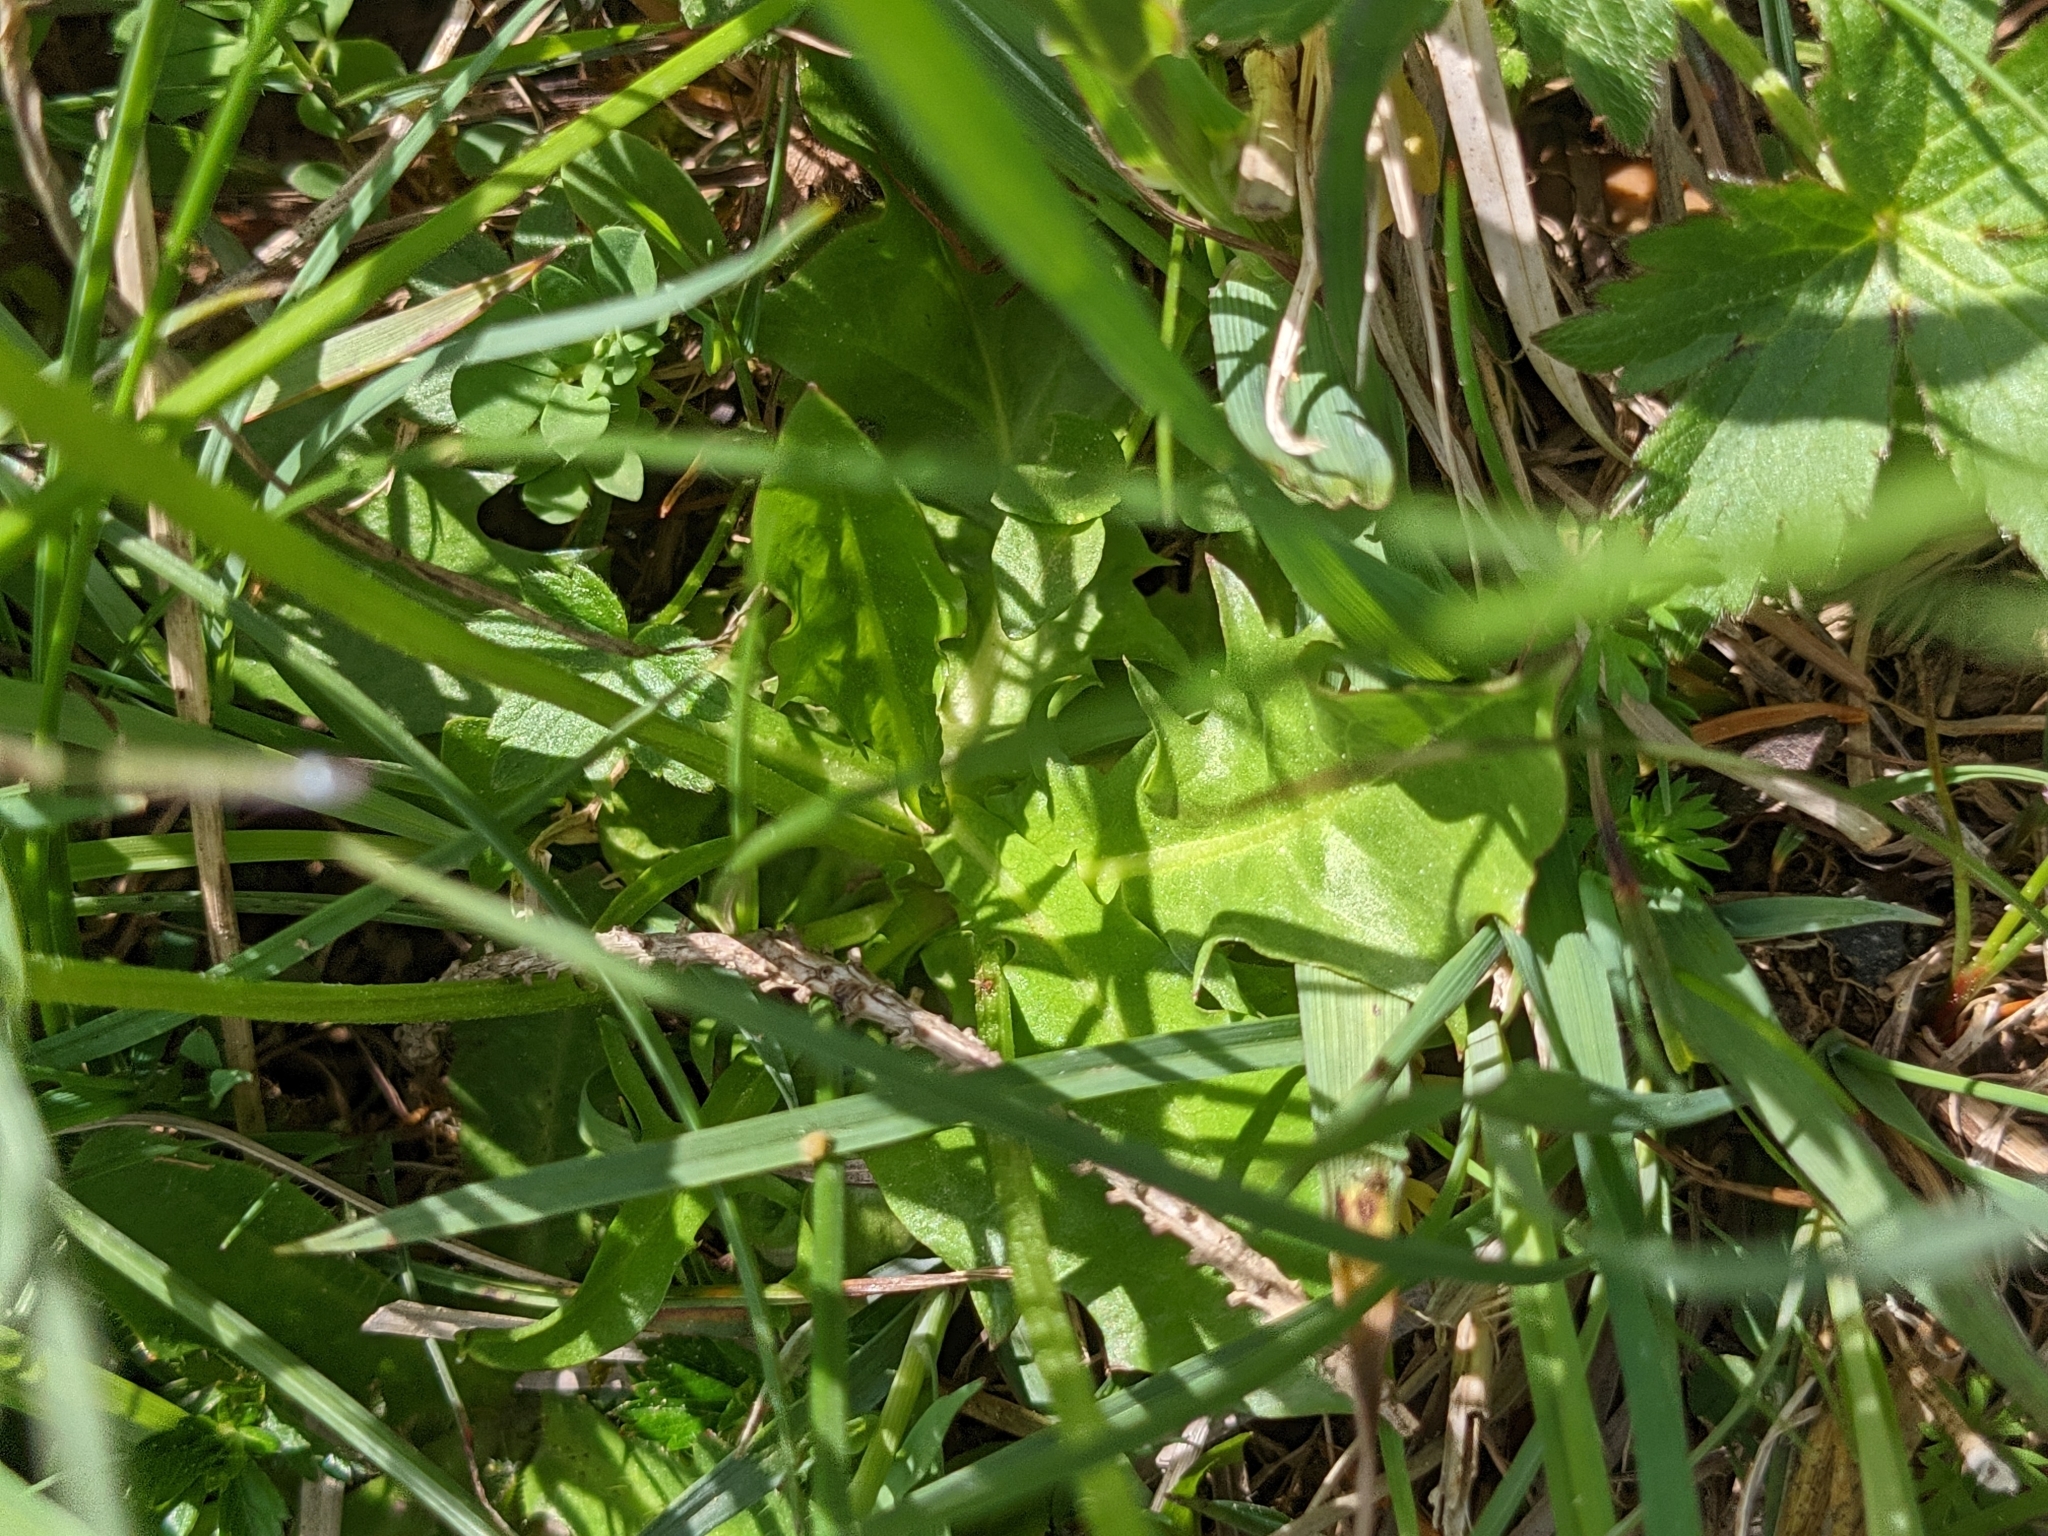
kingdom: Plantae
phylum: Tracheophyta
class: Magnoliopsida
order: Asterales
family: Asteraceae
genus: Crepis
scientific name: Crepis aurea
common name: Golden hawk's-beard
